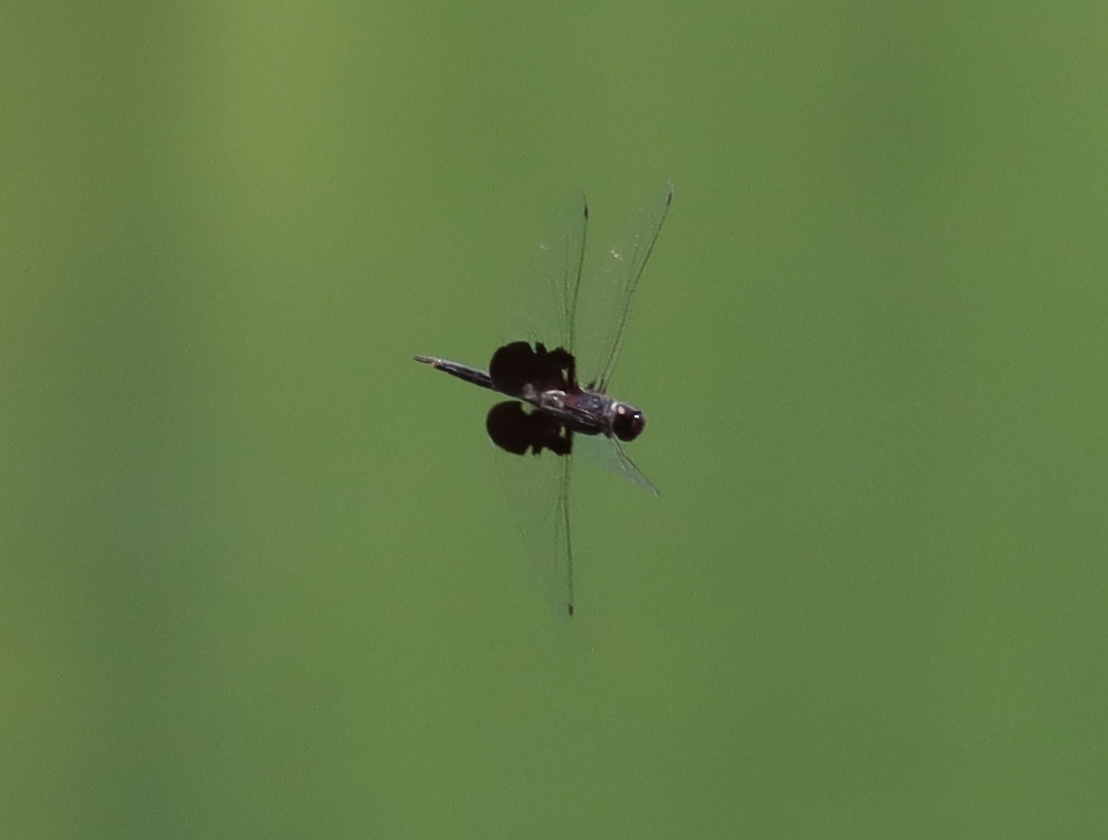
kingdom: Animalia
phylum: Arthropoda
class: Insecta
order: Odonata
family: Libellulidae
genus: Tramea
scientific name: Tramea lacerata
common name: Black saddlebags
